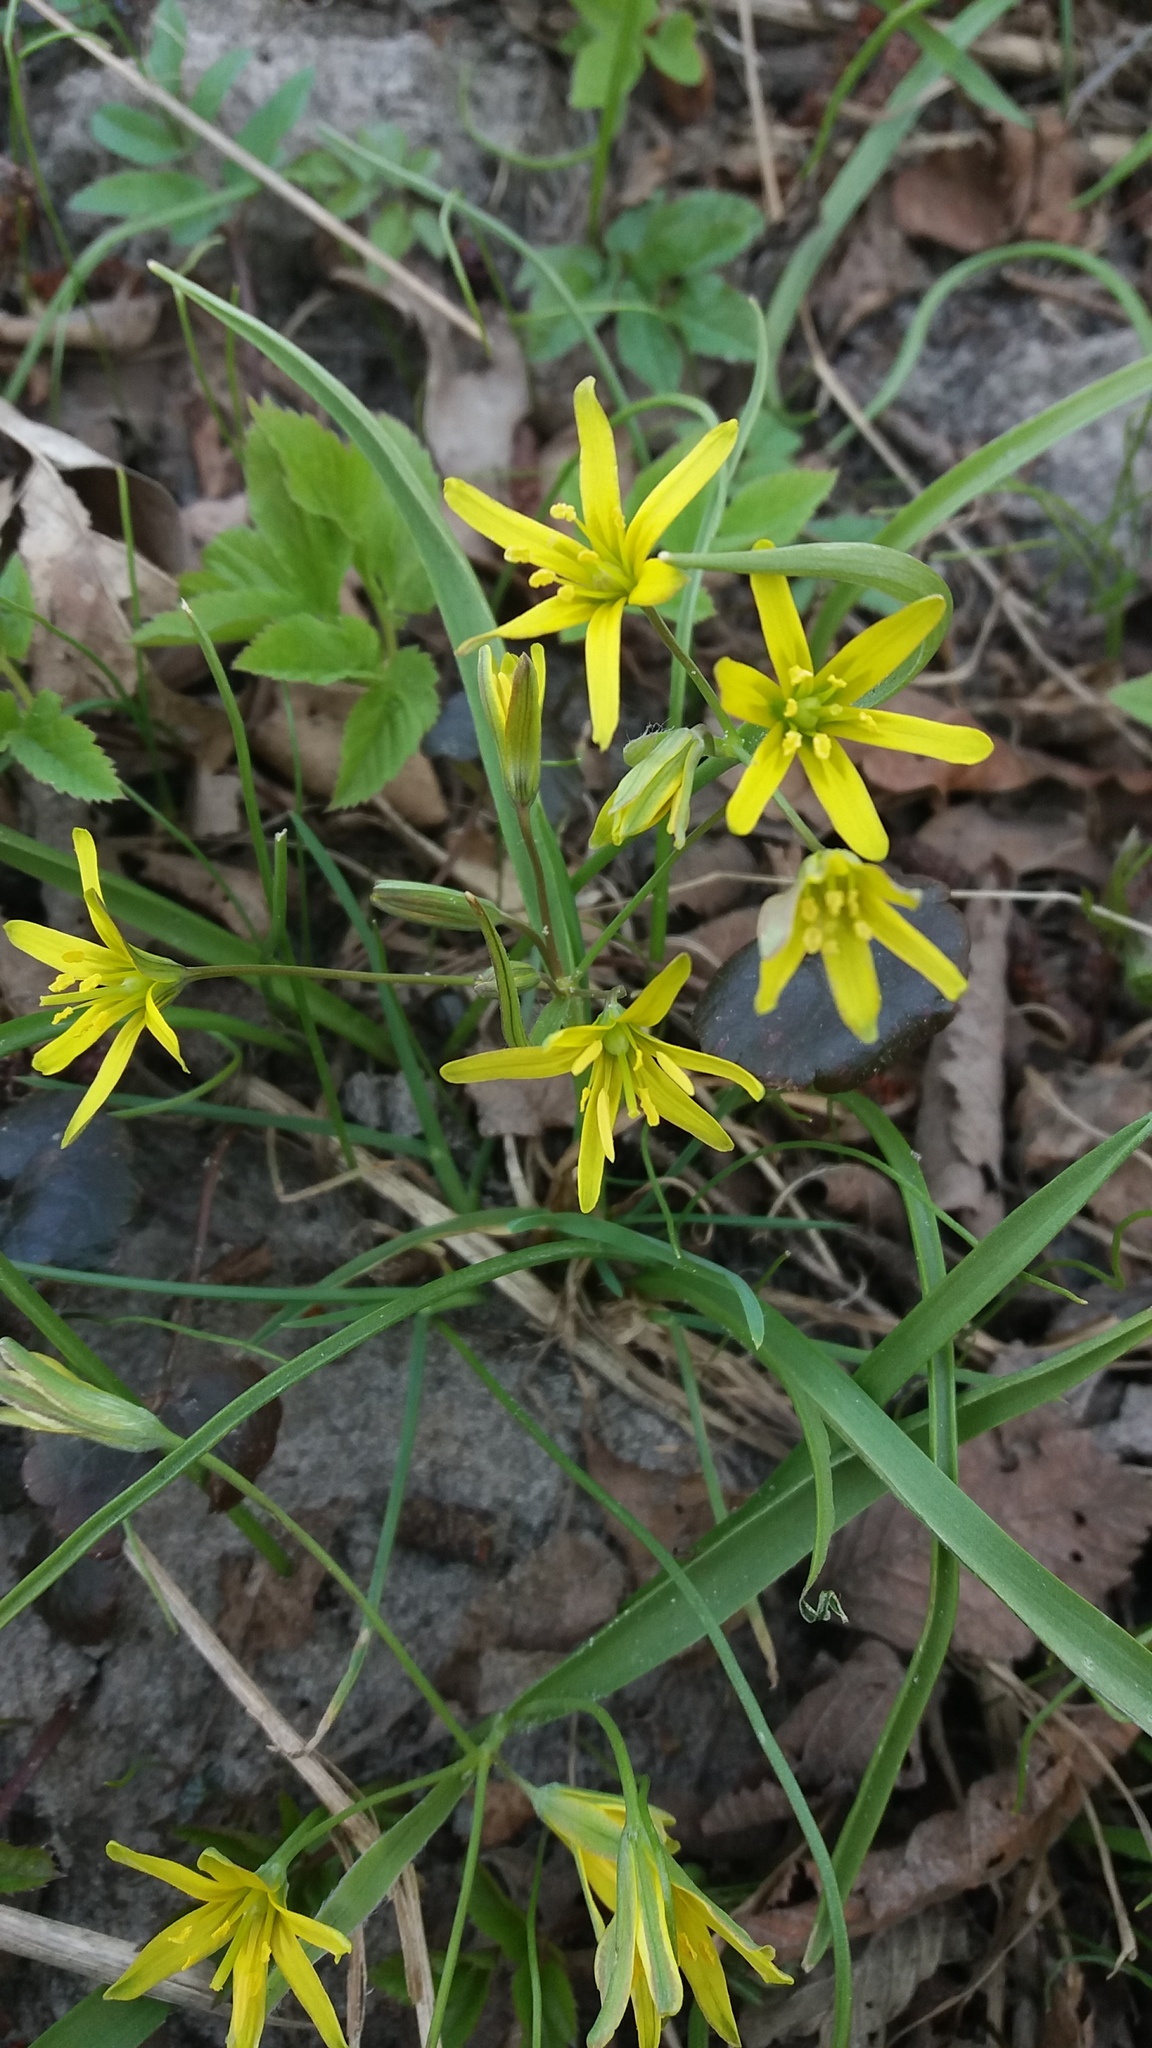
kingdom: Plantae
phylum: Tracheophyta
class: Liliopsida
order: Liliales
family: Liliaceae
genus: Gagea
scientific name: Gagea lutea
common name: Yellow star-of-bethlehem
